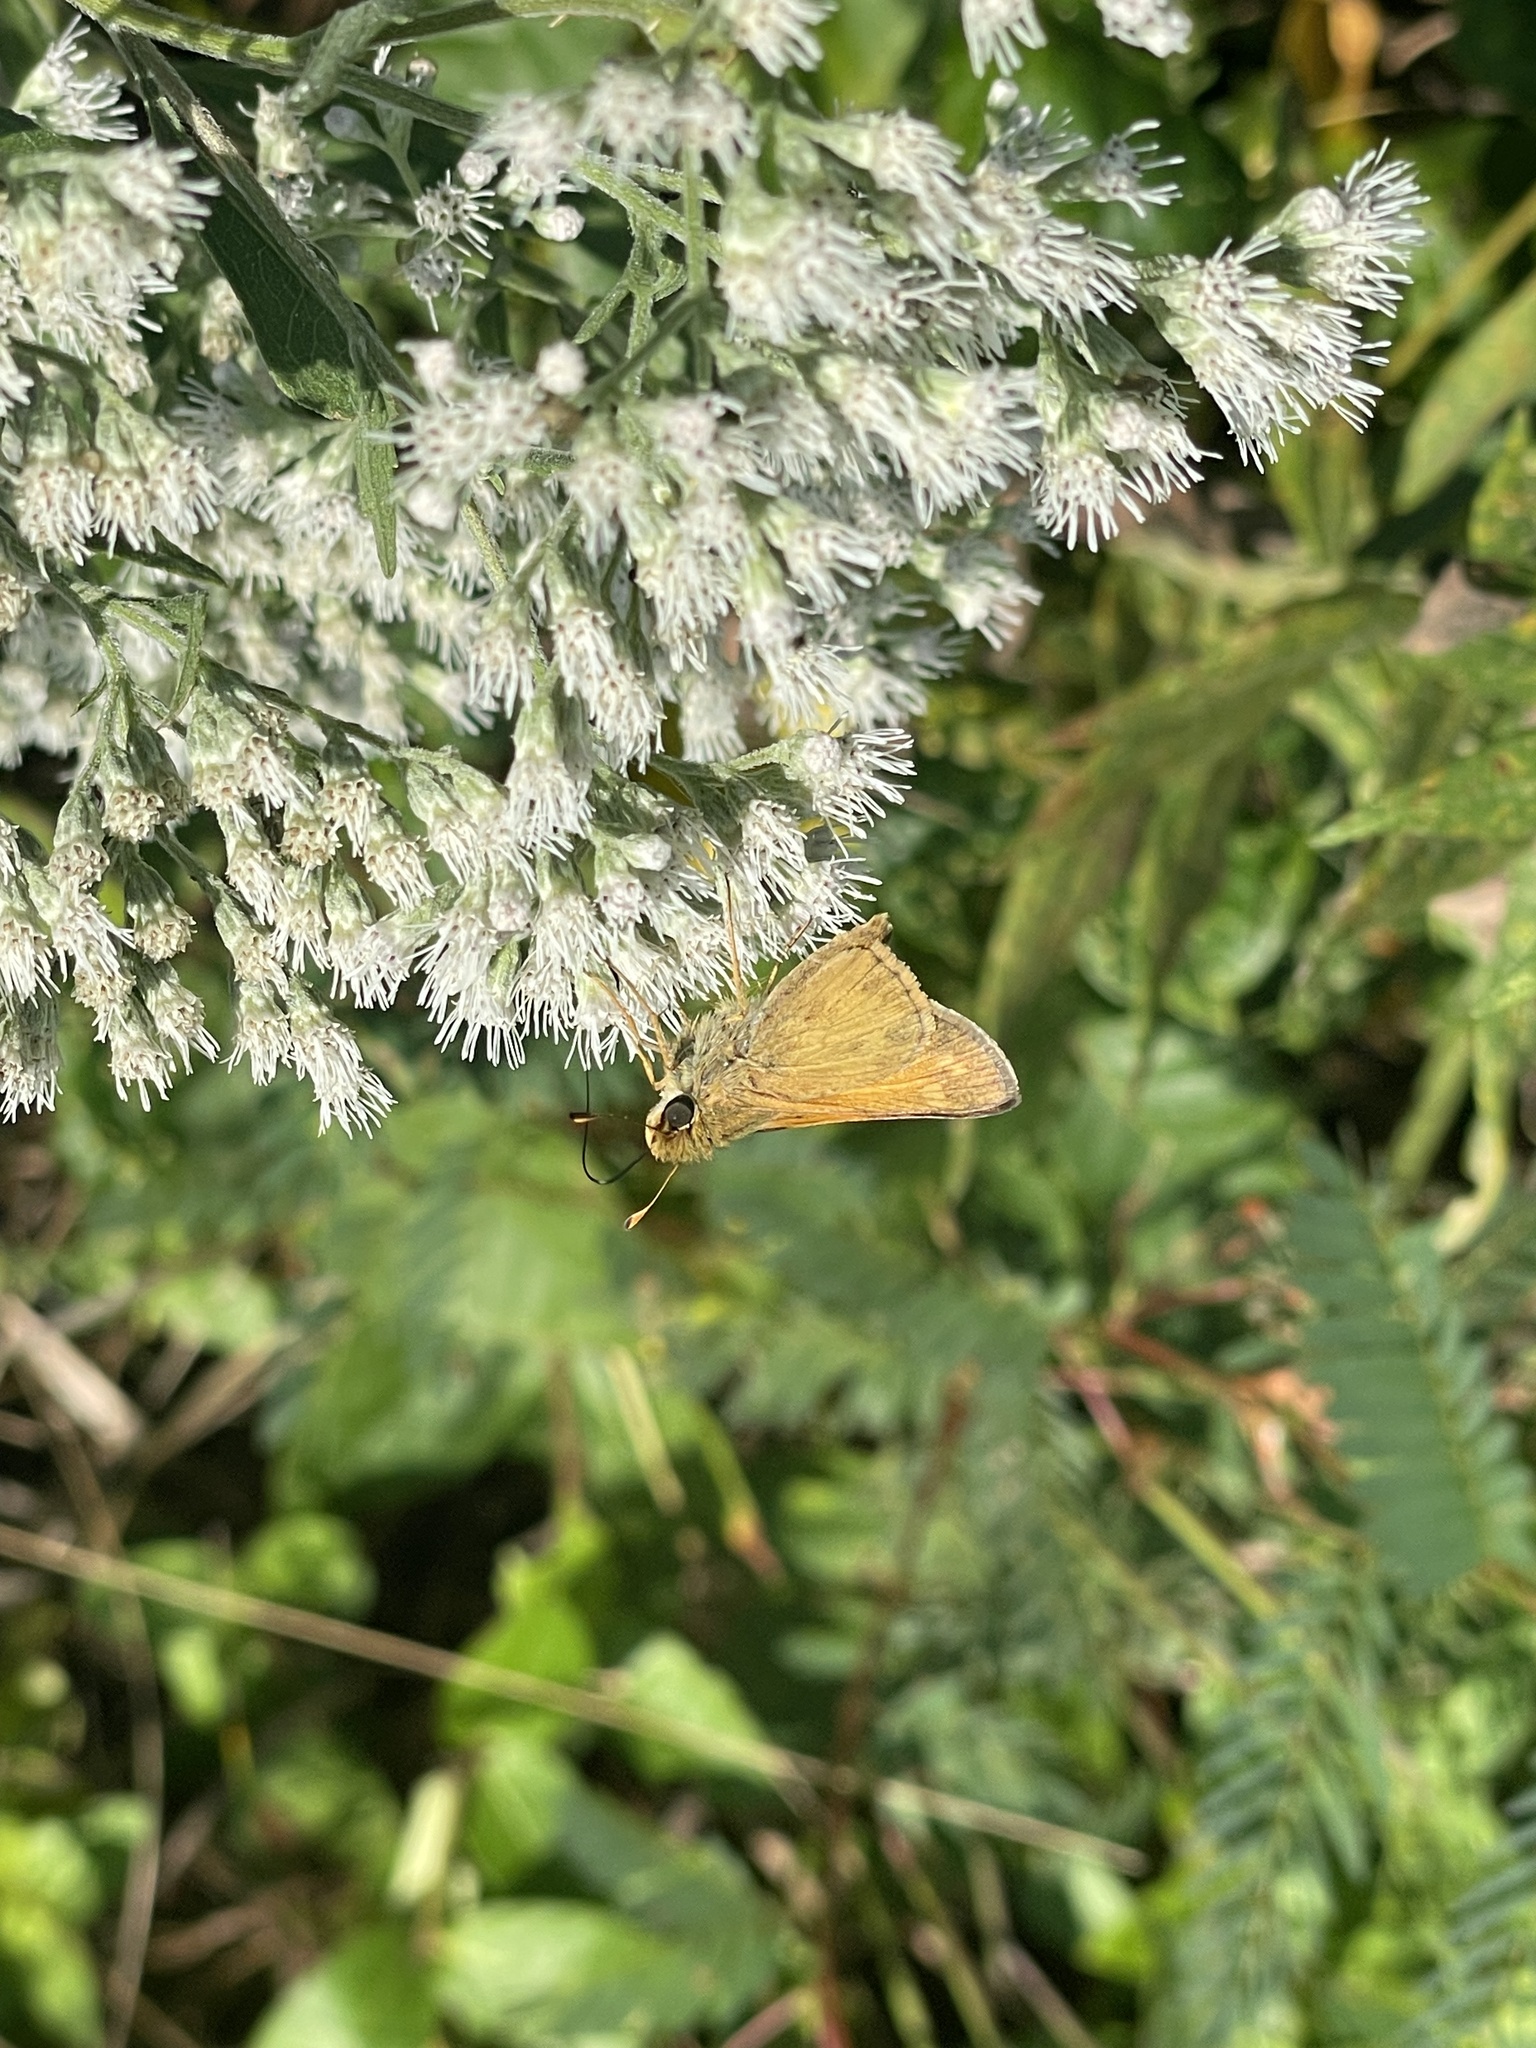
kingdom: Animalia
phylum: Arthropoda
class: Insecta
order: Lepidoptera
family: Hesperiidae
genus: Atalopedes
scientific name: Atalopedes
